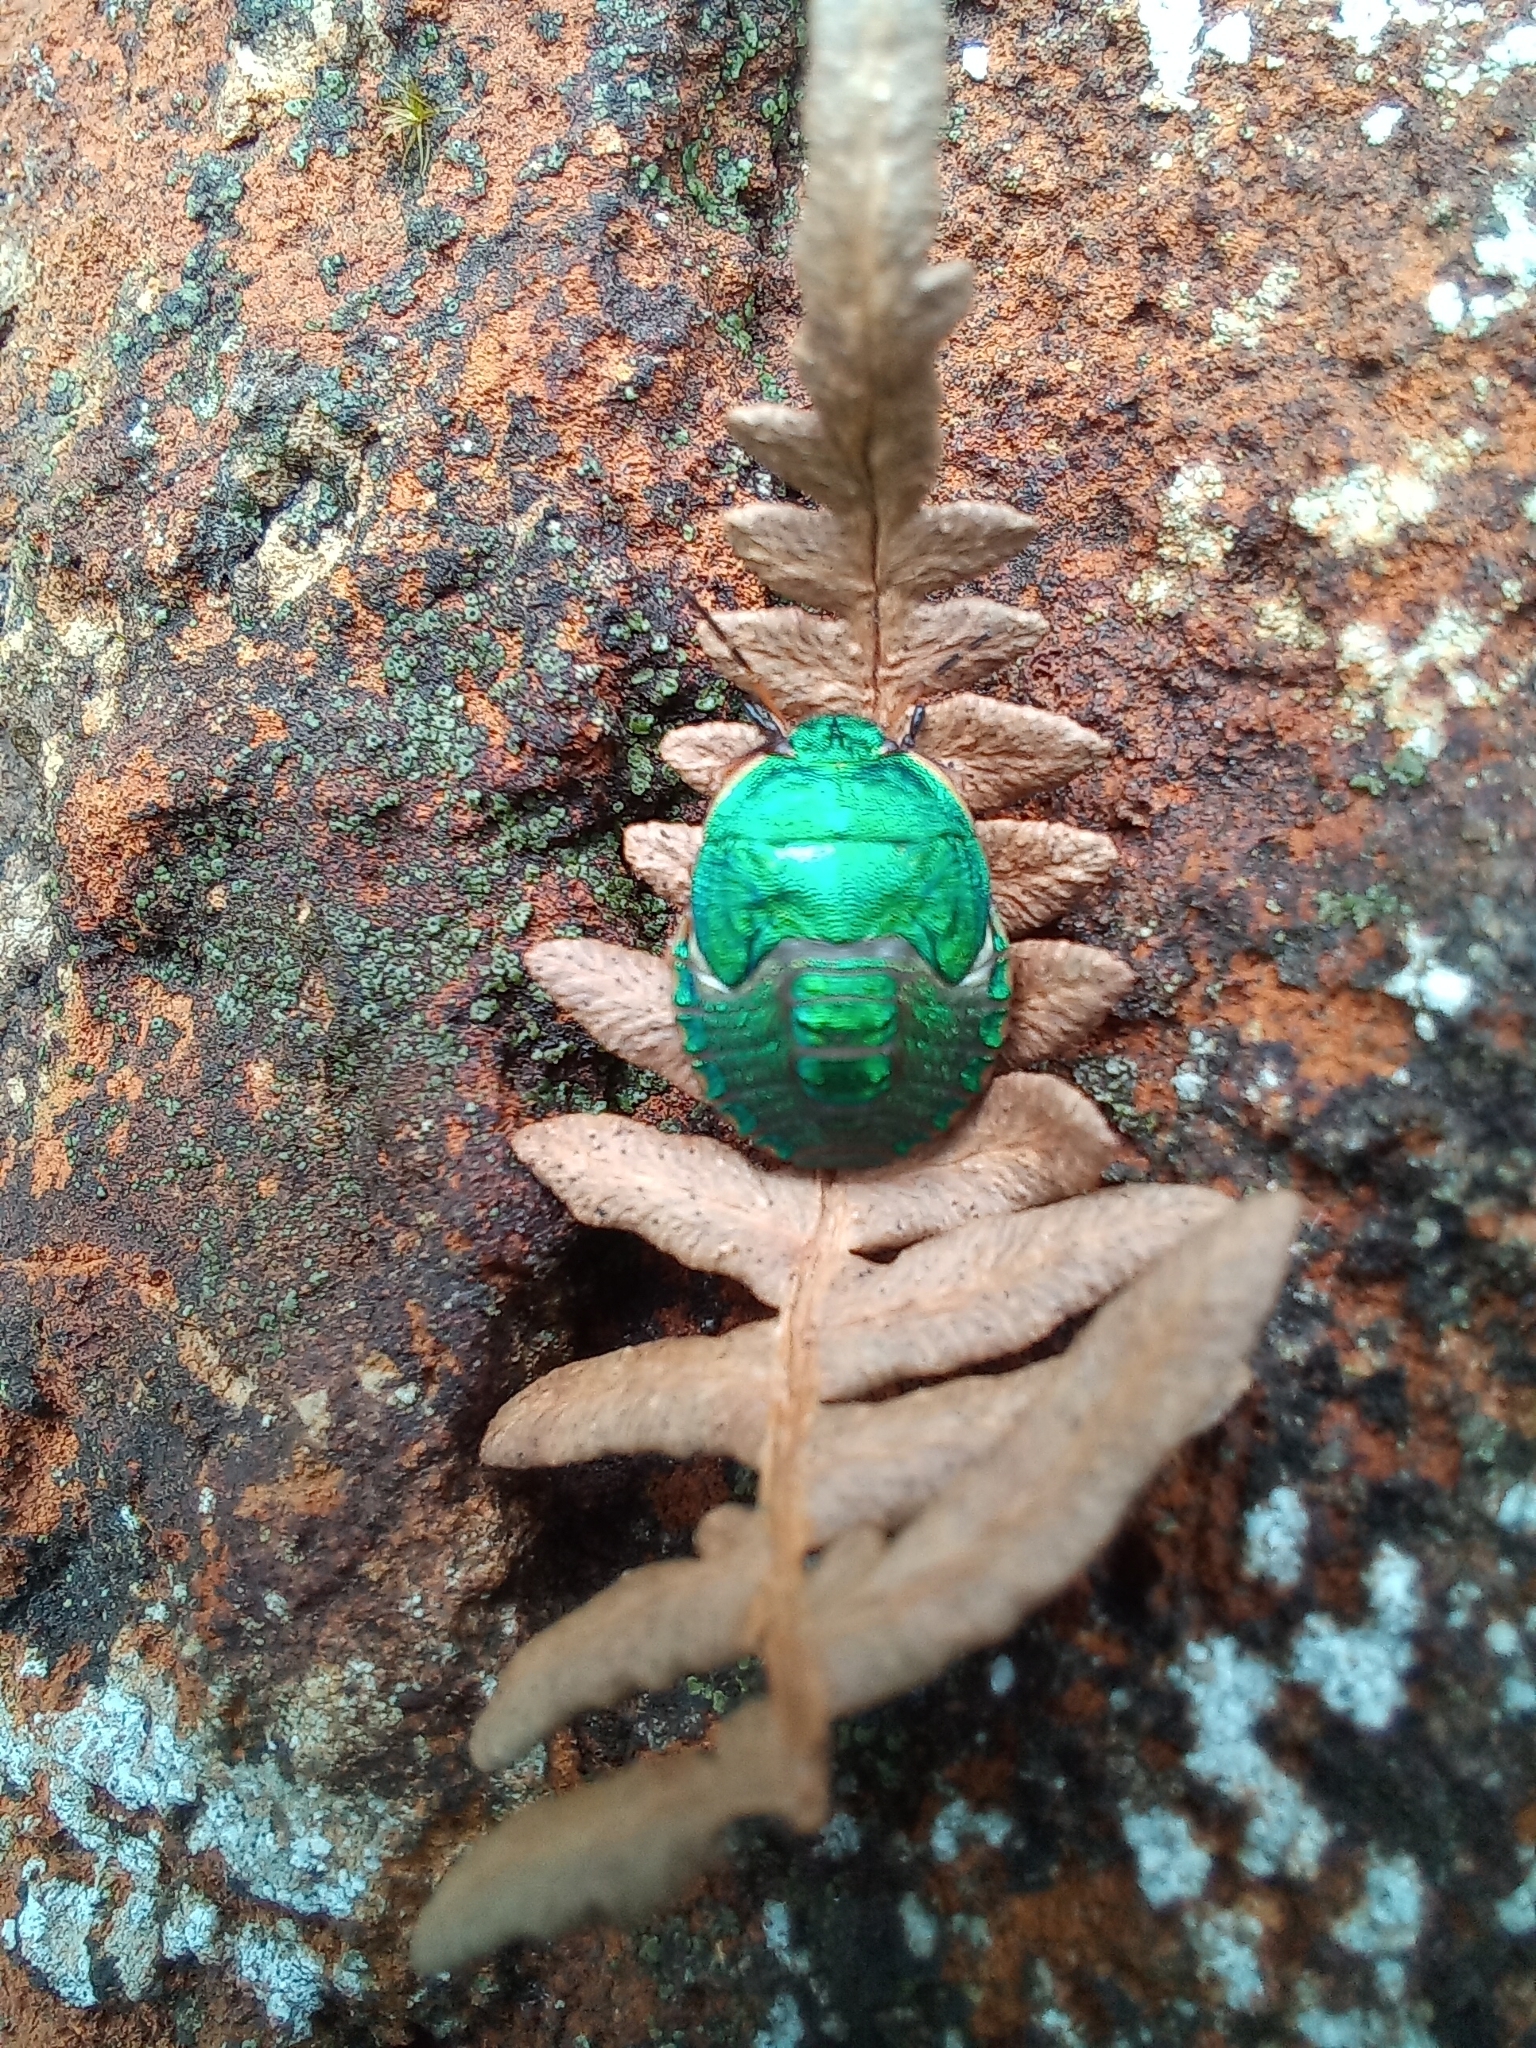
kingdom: Animalia
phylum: Arthropoda
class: Insecta
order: Hemiptera
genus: Erachtheus
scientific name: Erachtheus
